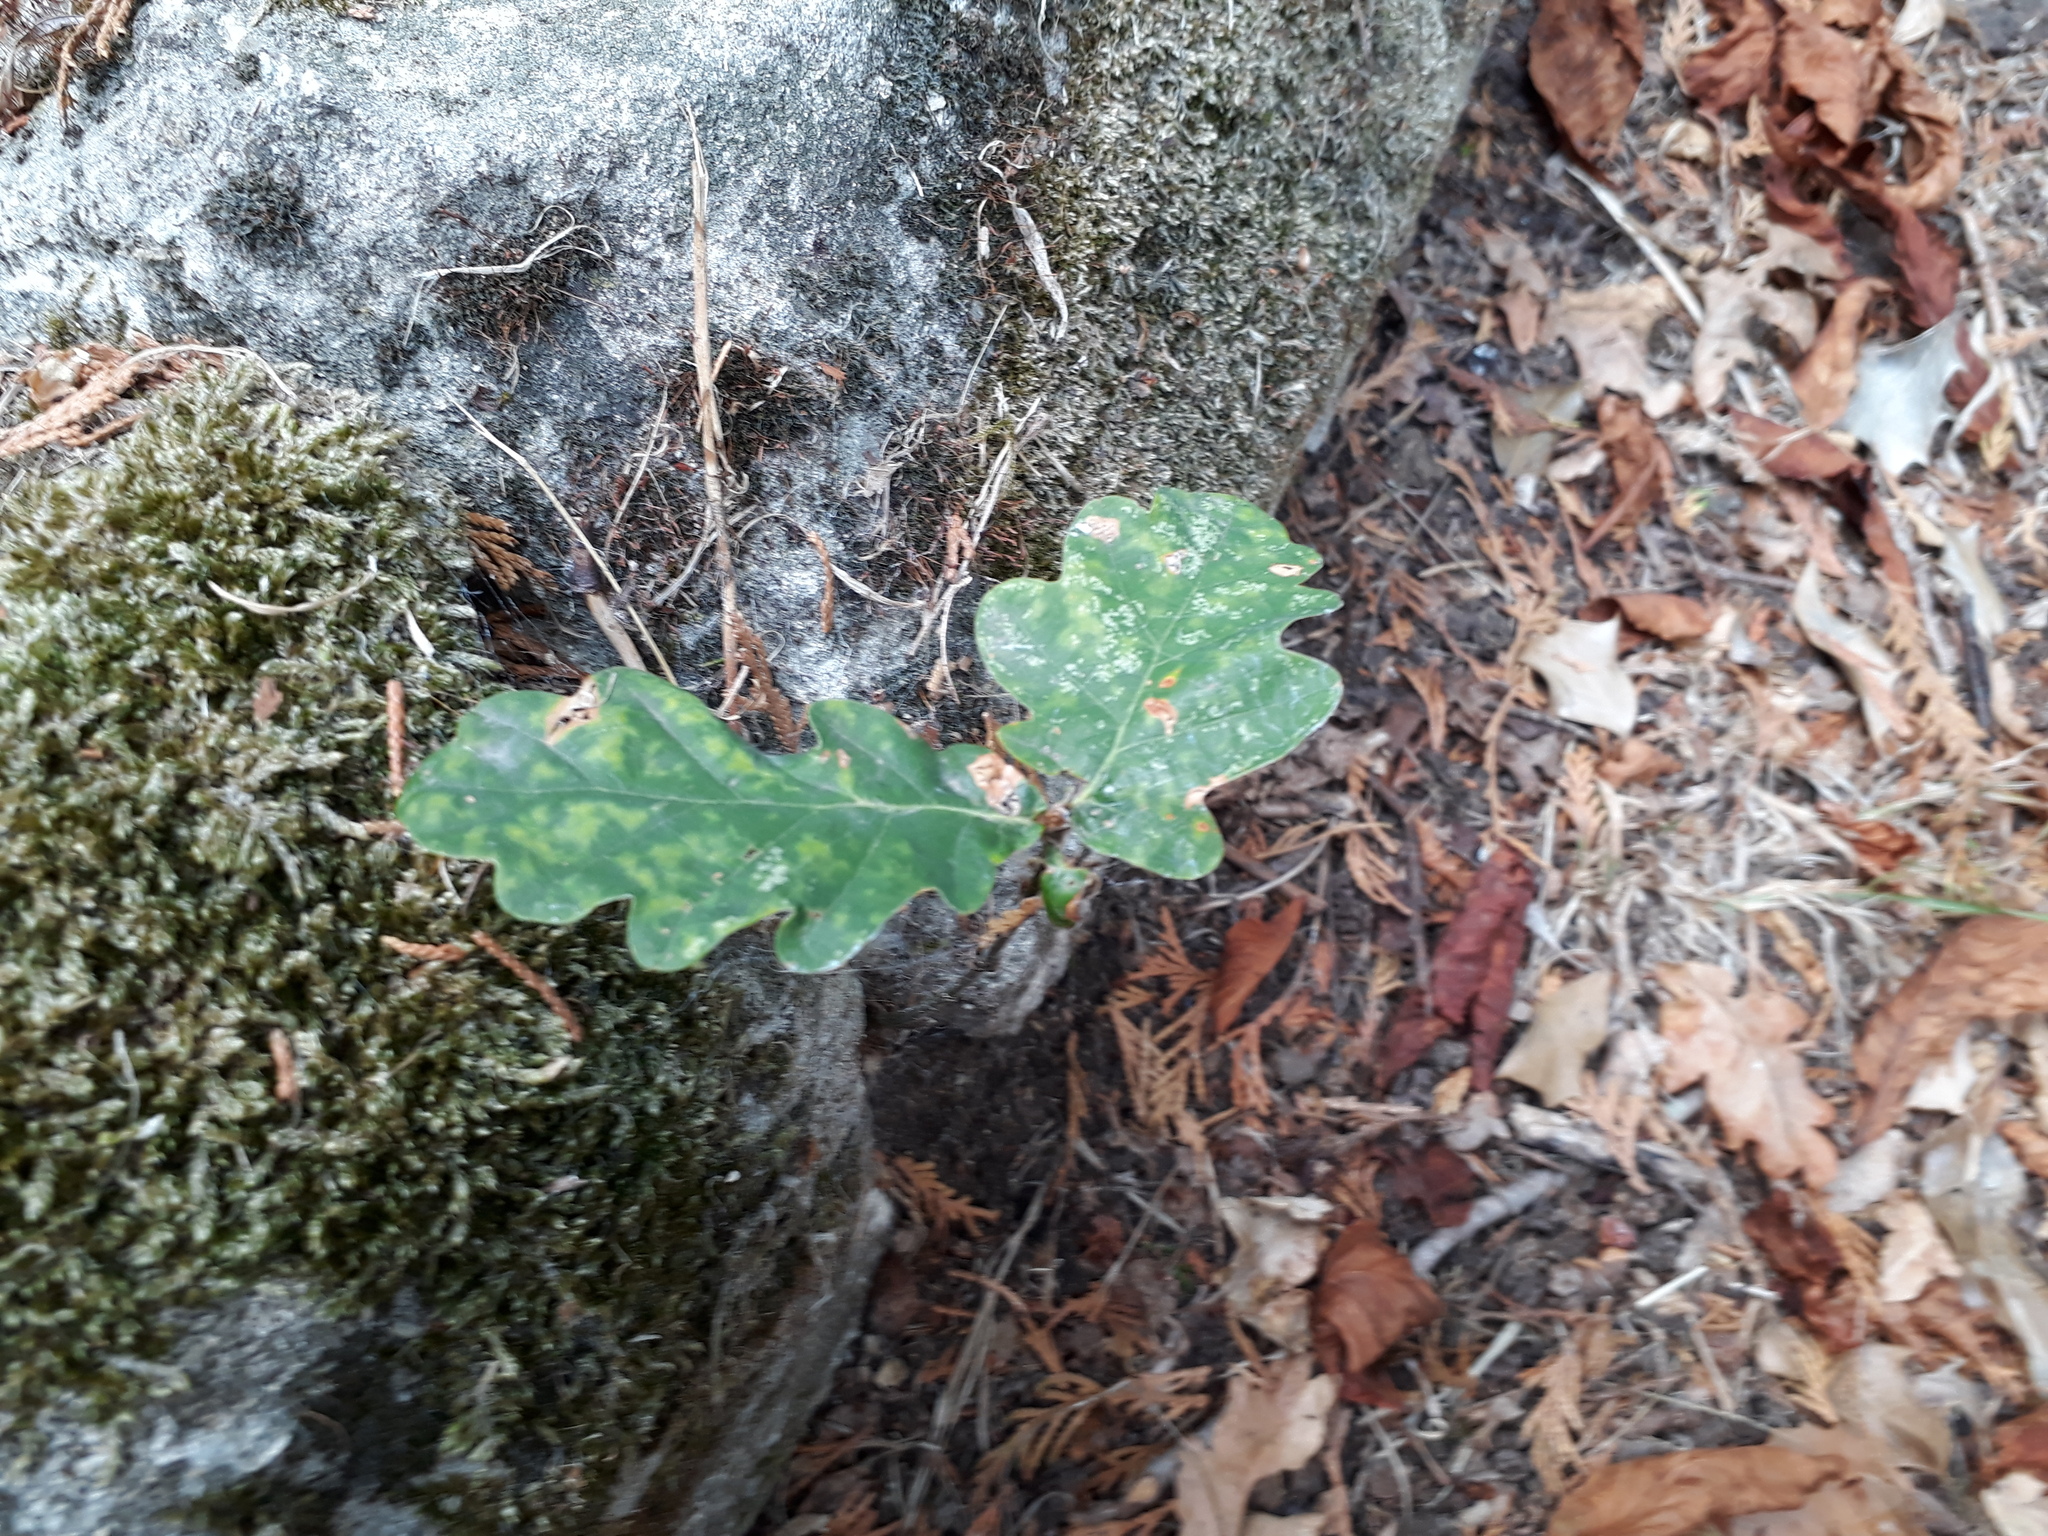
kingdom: Plantae
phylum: Tracheophyta
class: Magnoliopsida
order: Fagales
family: Fagaceae
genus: Quercus
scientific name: Quercus robur
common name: Pedunculate oak
